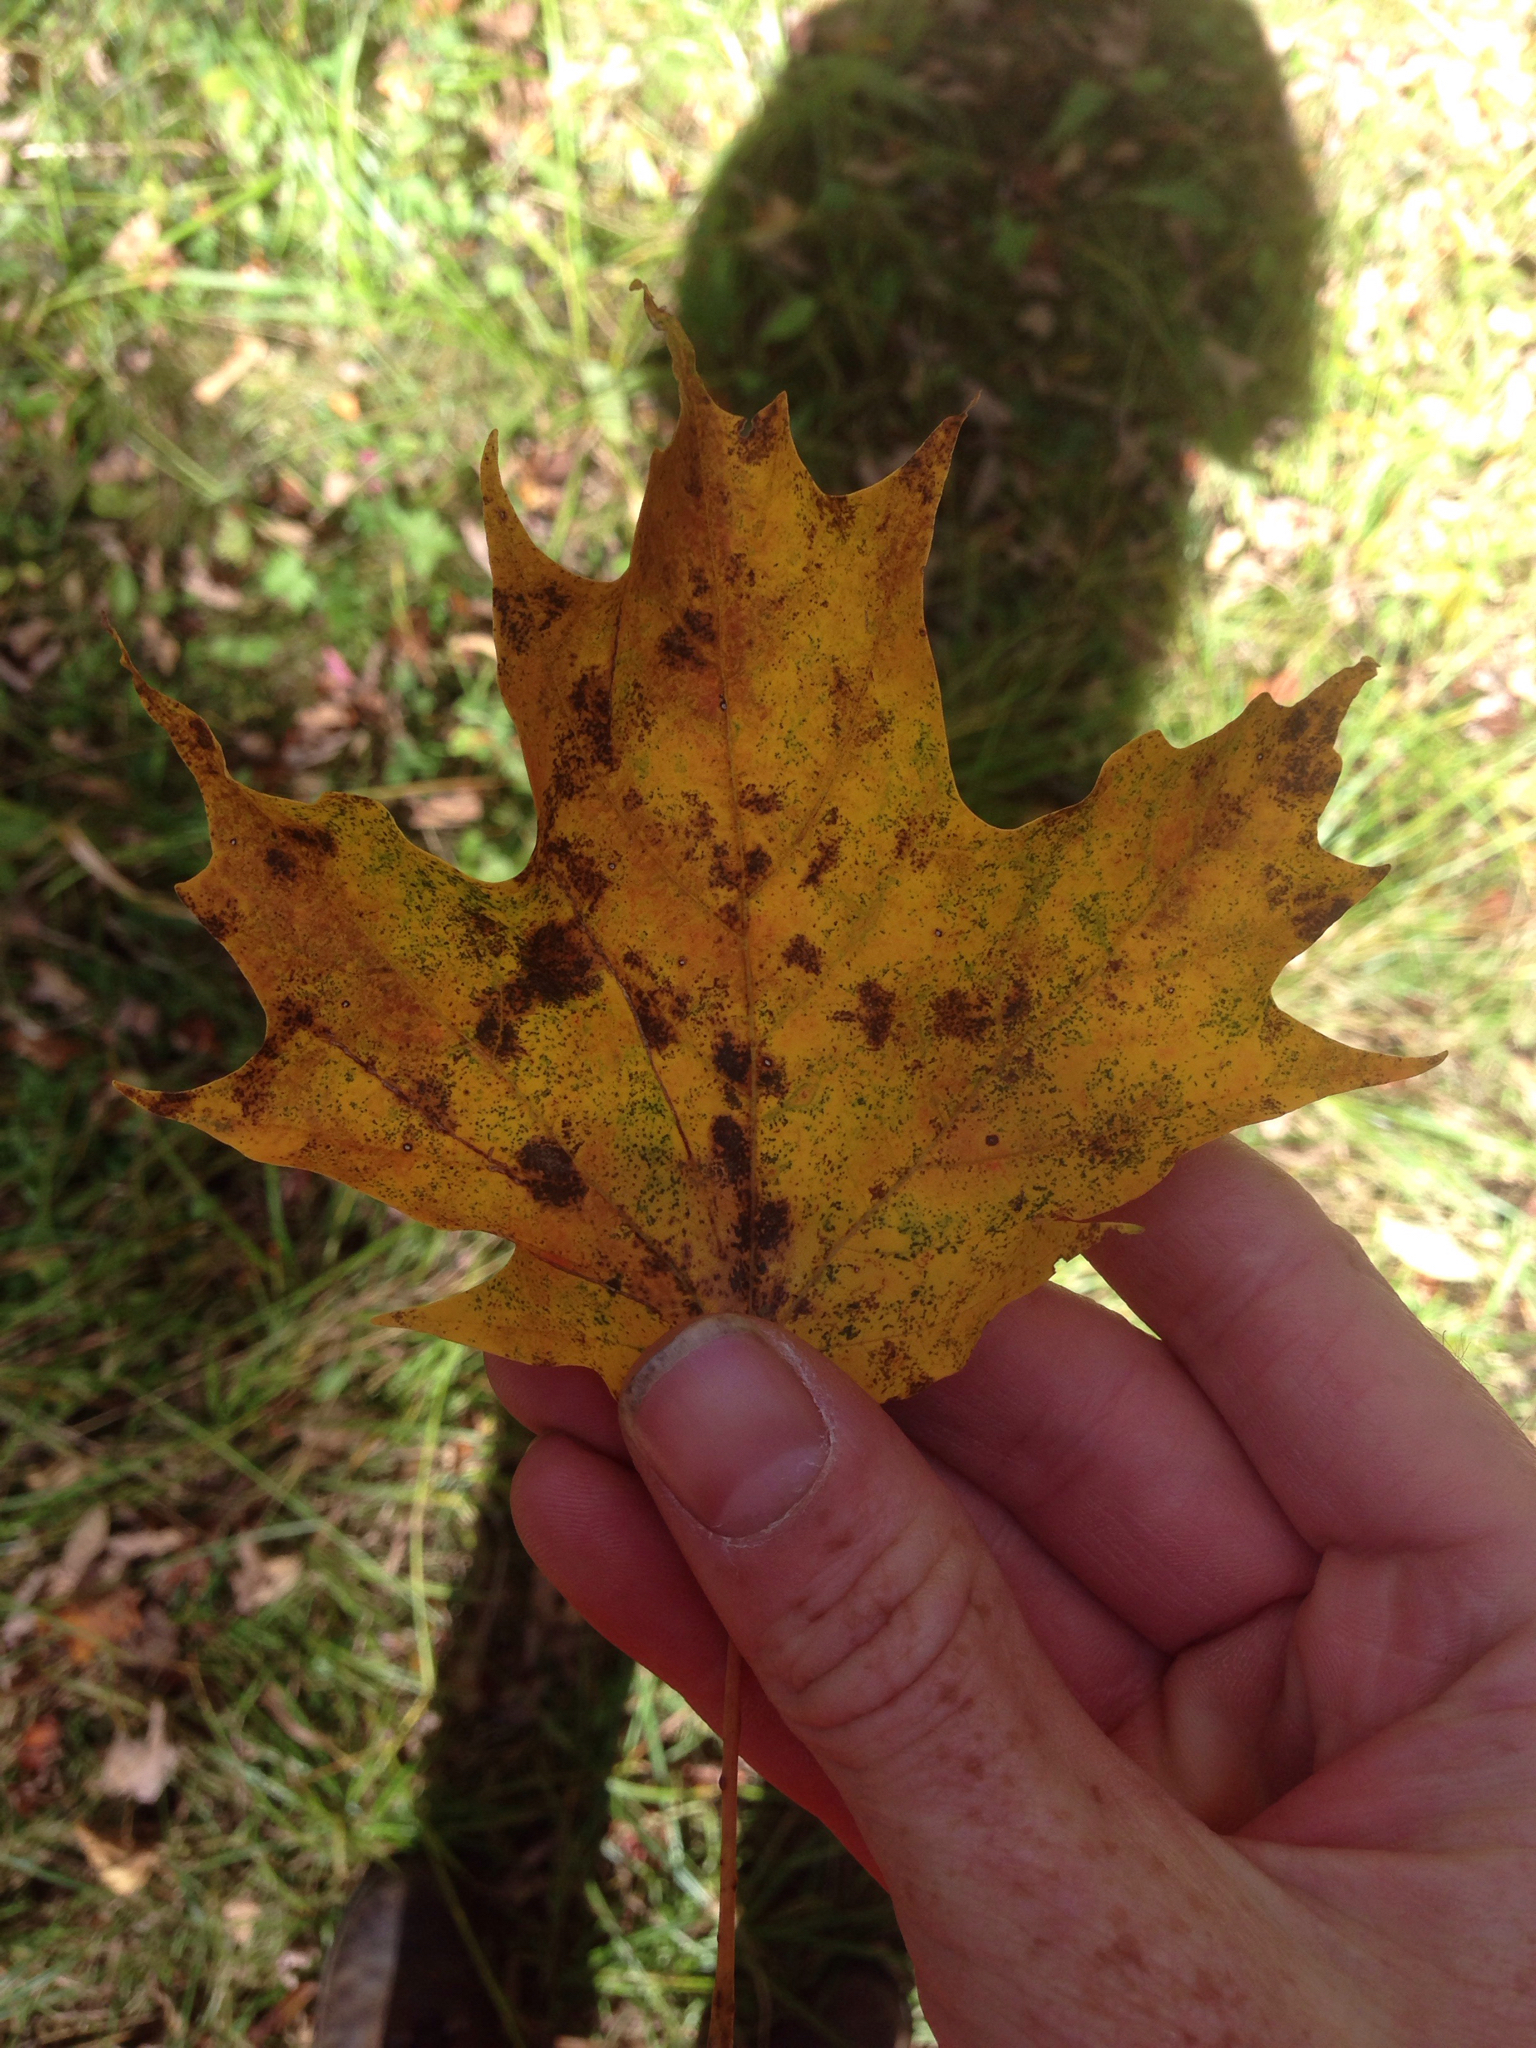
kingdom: Plantae
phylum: Tracheophyta
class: Magnoliopsida
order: Sapindales
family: Sapindaceae
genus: Acer
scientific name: Acer saccharum
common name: Sugar maple
